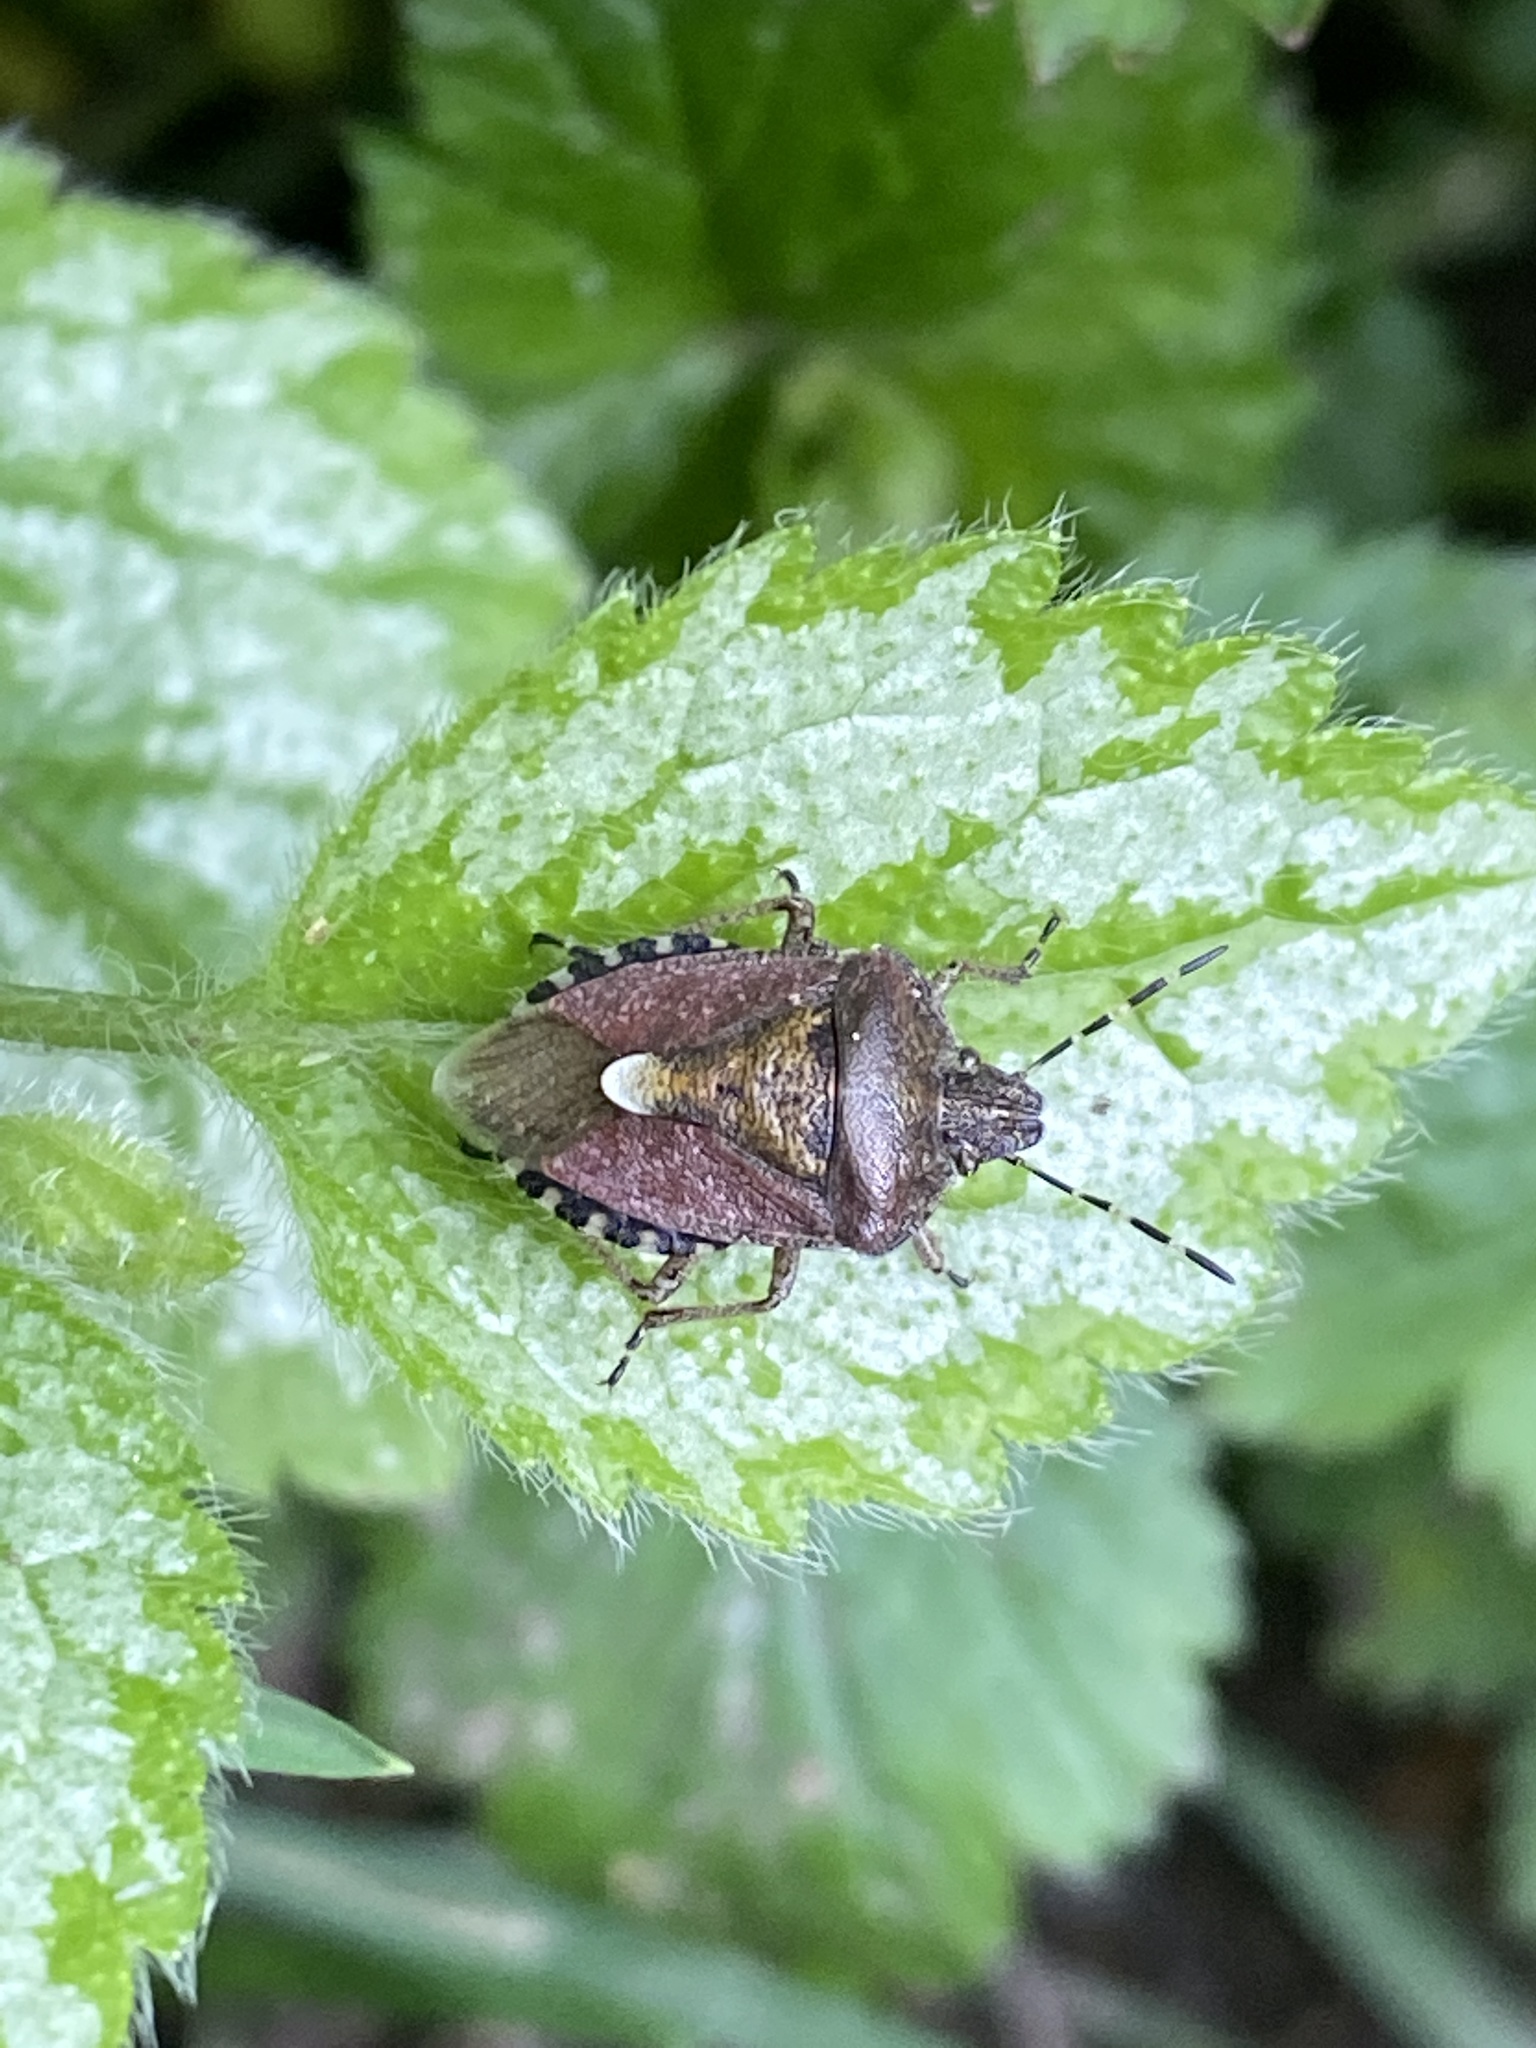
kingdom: Animalia
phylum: Arthropoda
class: Insecta
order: Hemiptera
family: Pentatomidae
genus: Dolycoris
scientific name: Dolycoris baccarum
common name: Sloe bug
